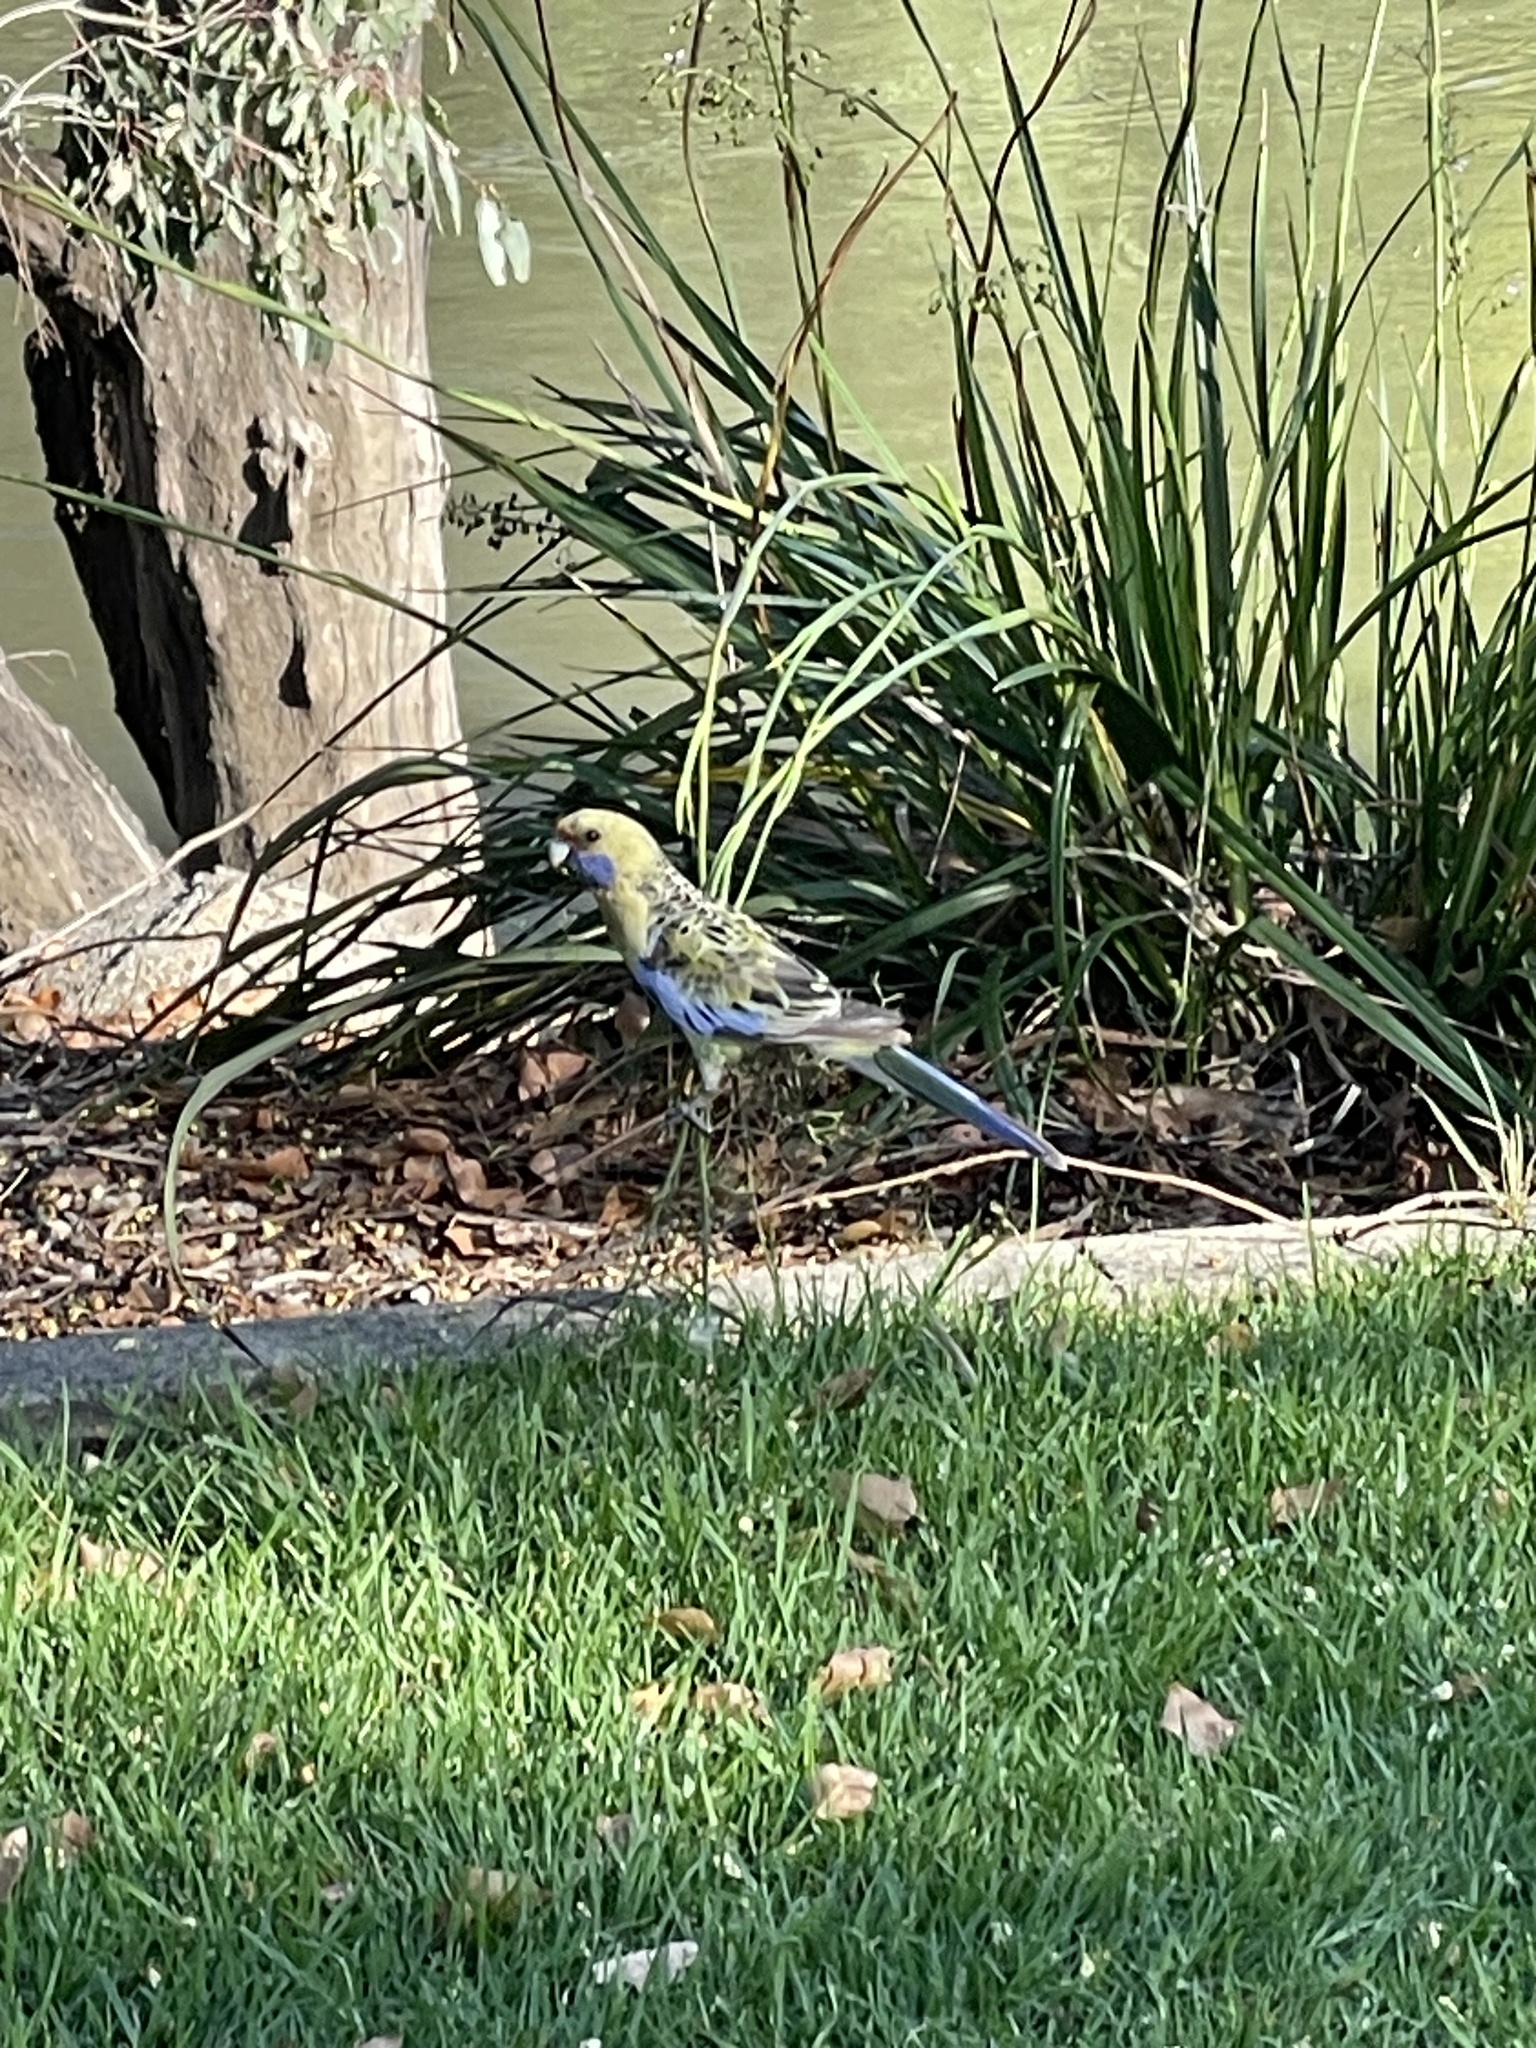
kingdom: Animalia
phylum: Chordata
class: Aves
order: Psittaciformes
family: Psittacidae
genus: Platycercus
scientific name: Platycercus elegans
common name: Crimson rosella
